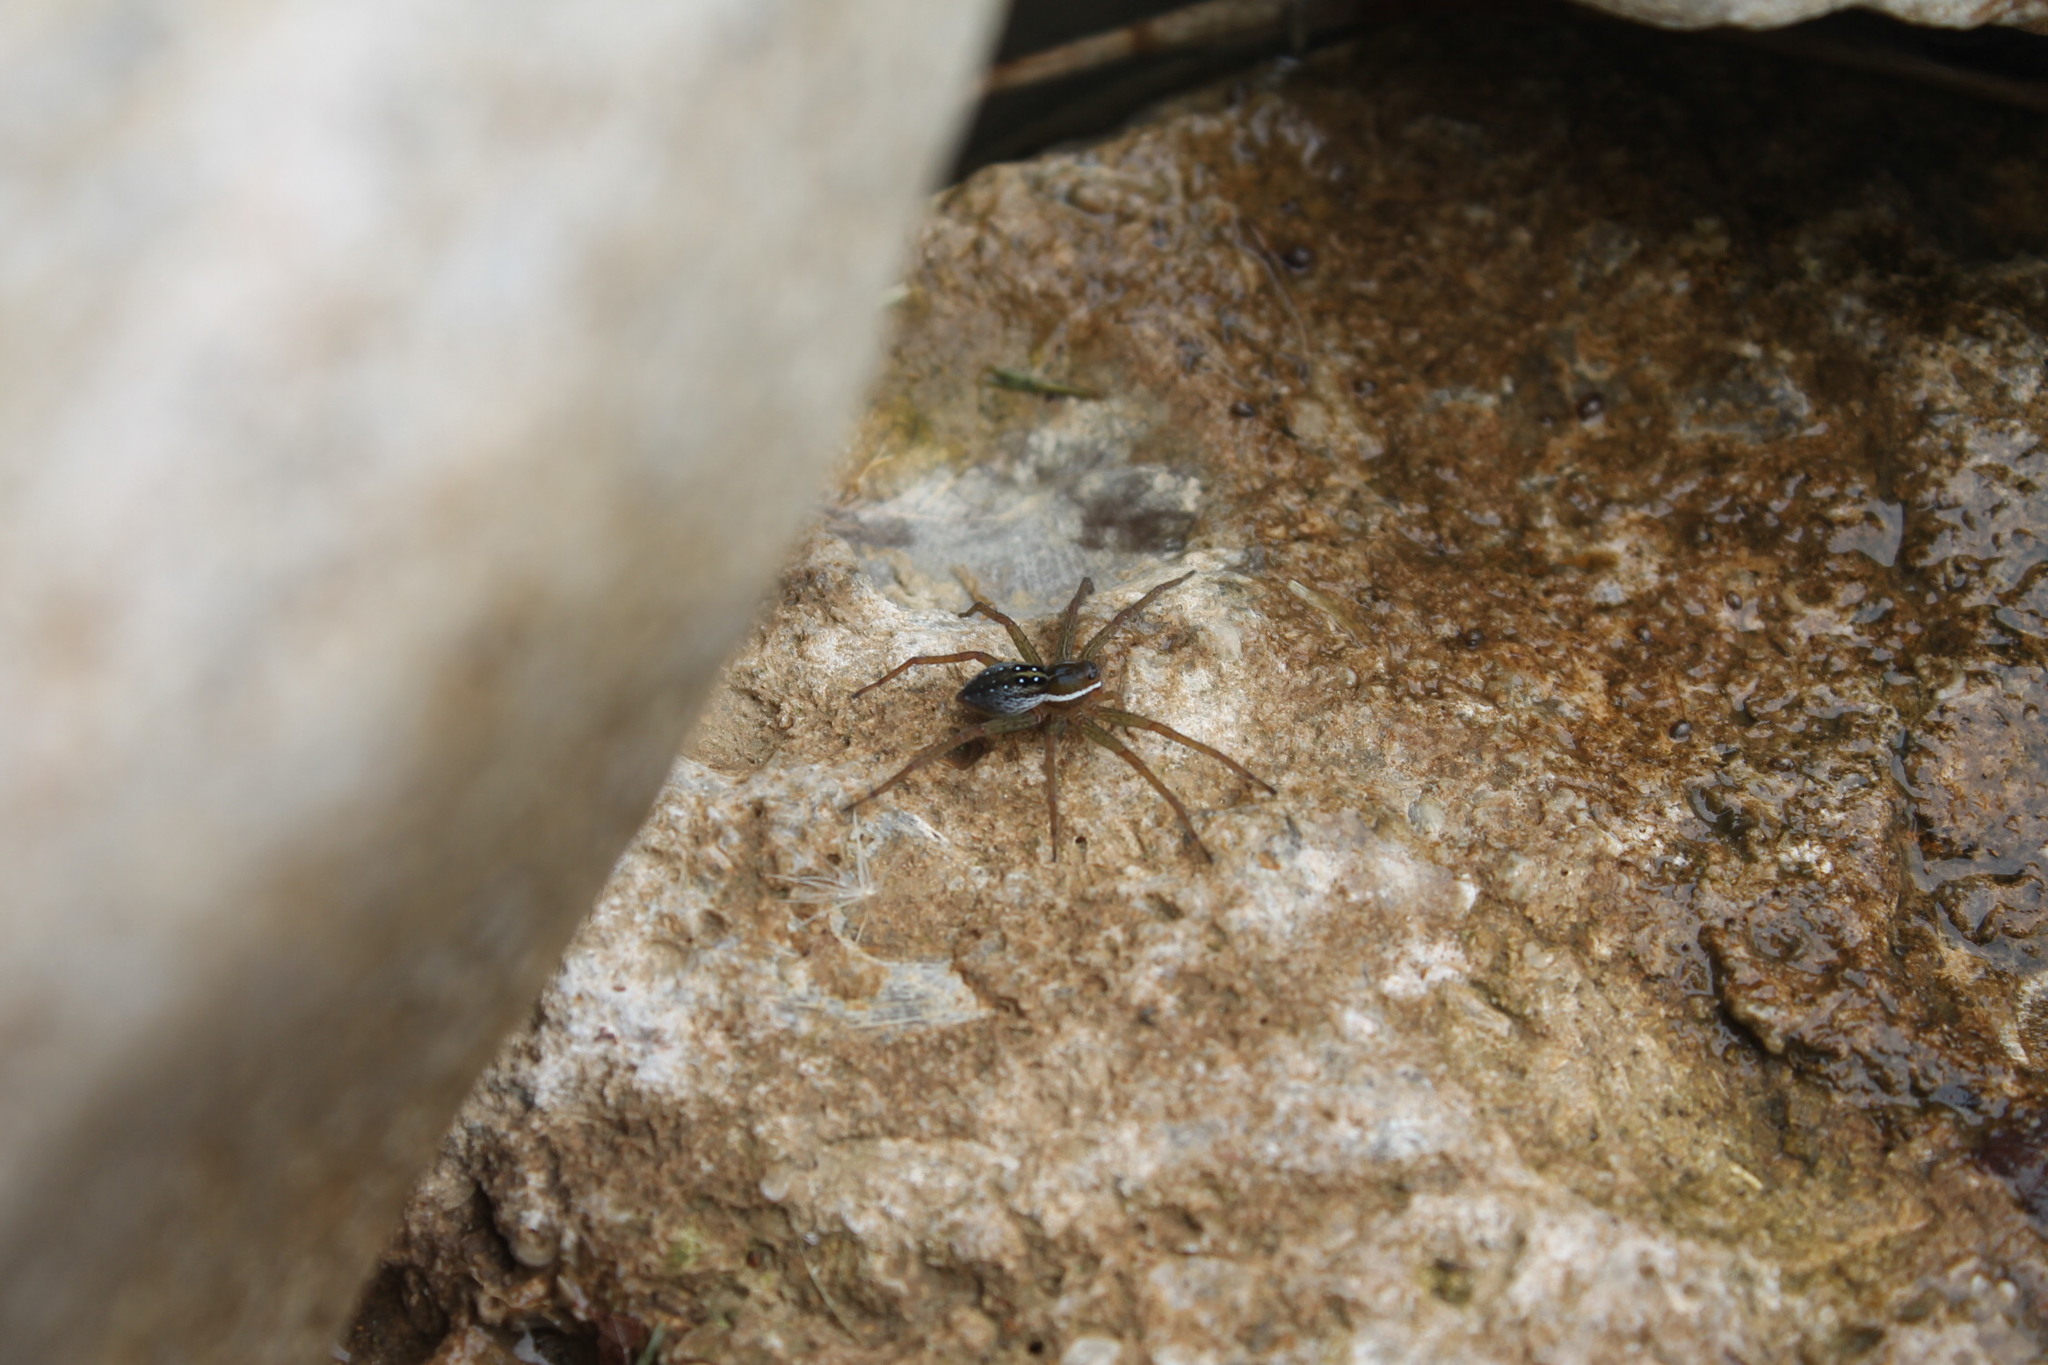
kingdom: Animalia
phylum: Arthropoda
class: Arachnida
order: Araneae
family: Pisauridae
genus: Dolomedes
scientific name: Dolomedes triton
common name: Six-spotted fishing spider
